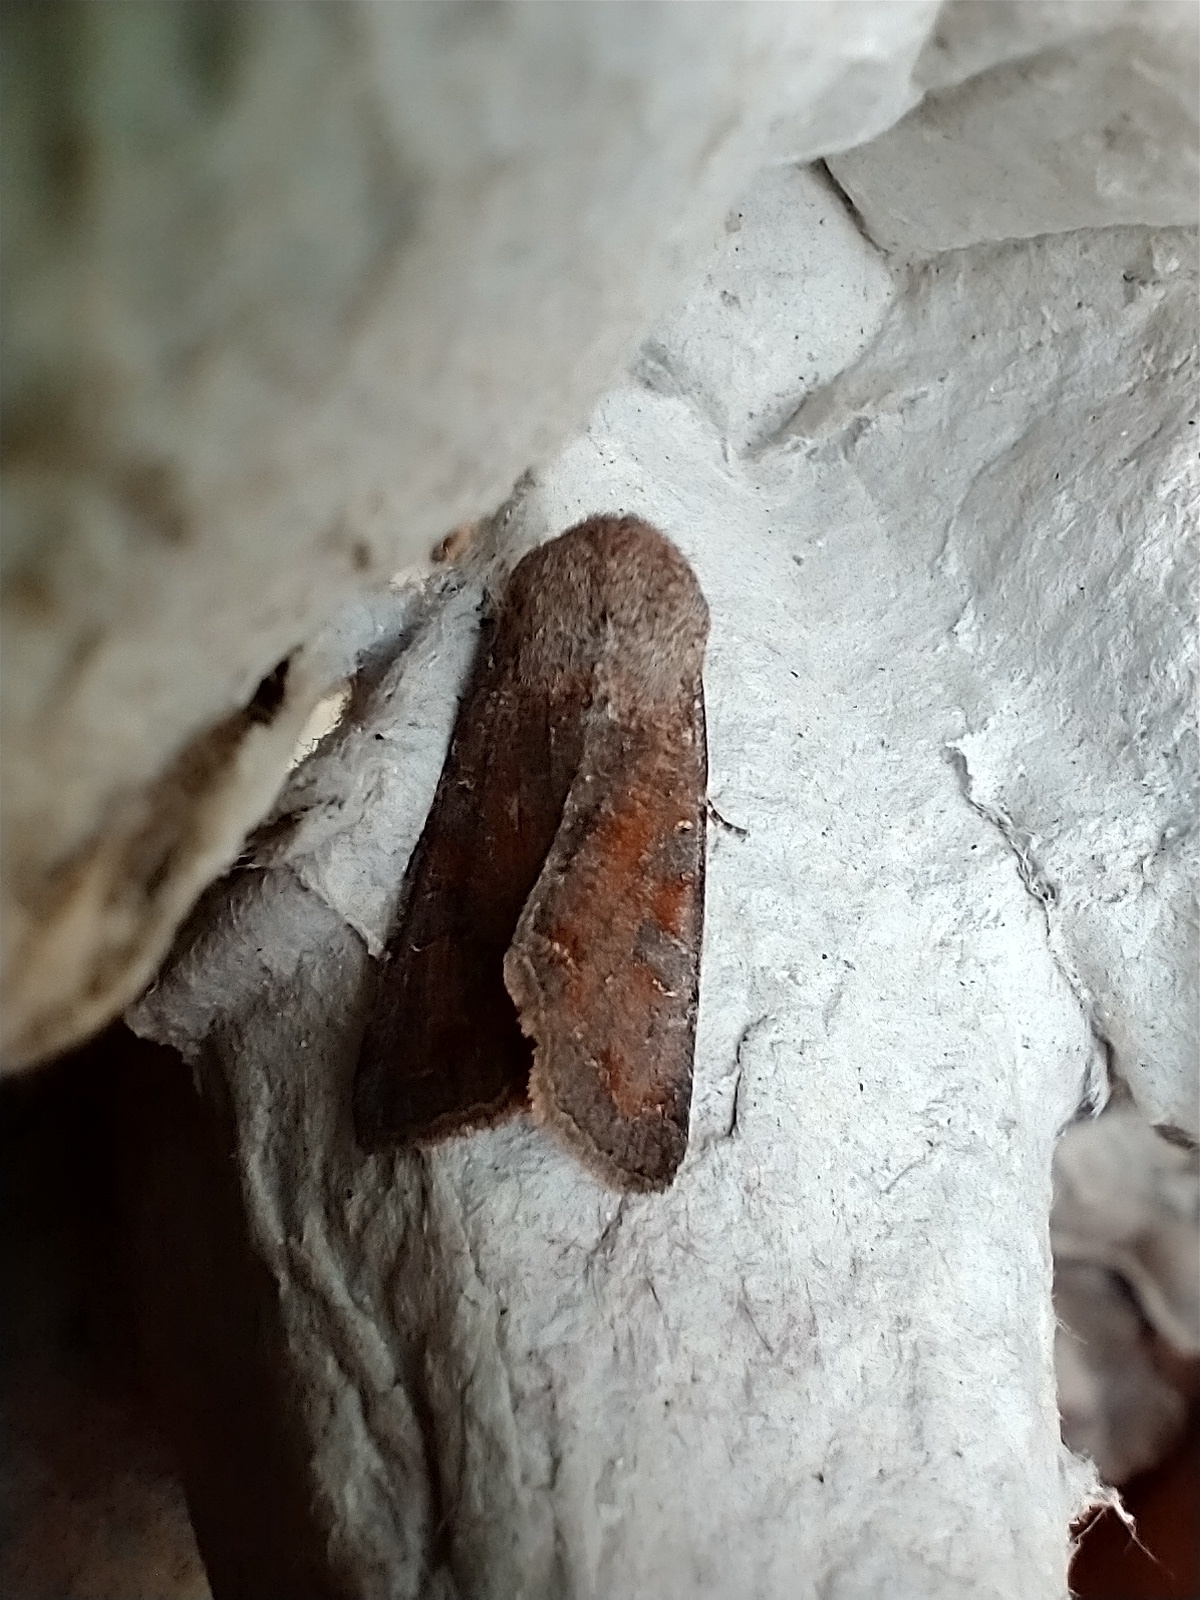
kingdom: Animalia
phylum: Arthropoda
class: Insecta
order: Lepidoptera
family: Noctuidae
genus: Orthosia
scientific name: Orthosia incerta
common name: Clouded drab
